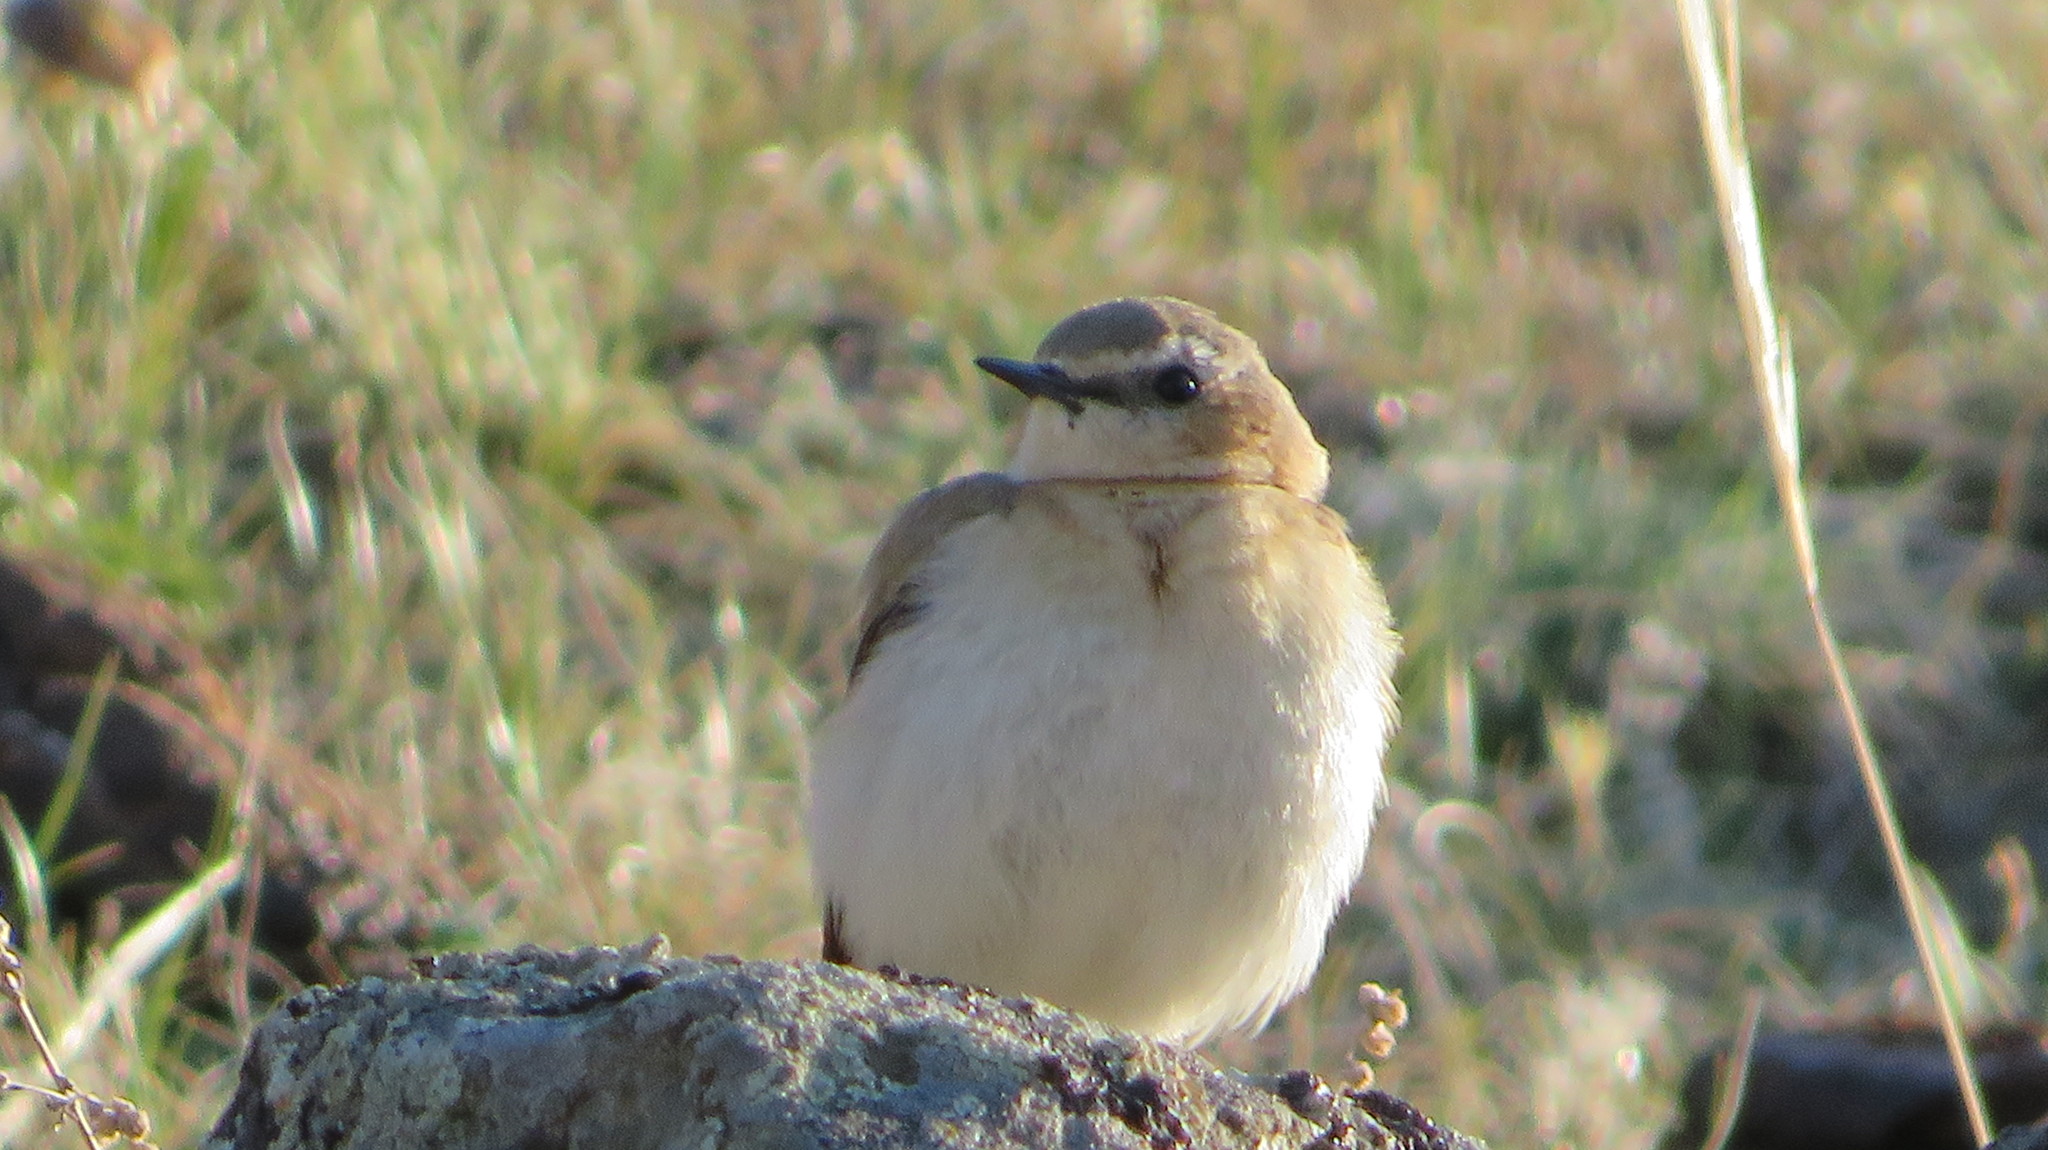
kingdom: Animalia
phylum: Chordata
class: Aves
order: Passeriformes
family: Muscicapidae
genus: Oenanthe
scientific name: Oenanthe isabellina
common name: Isabelline wheatear
